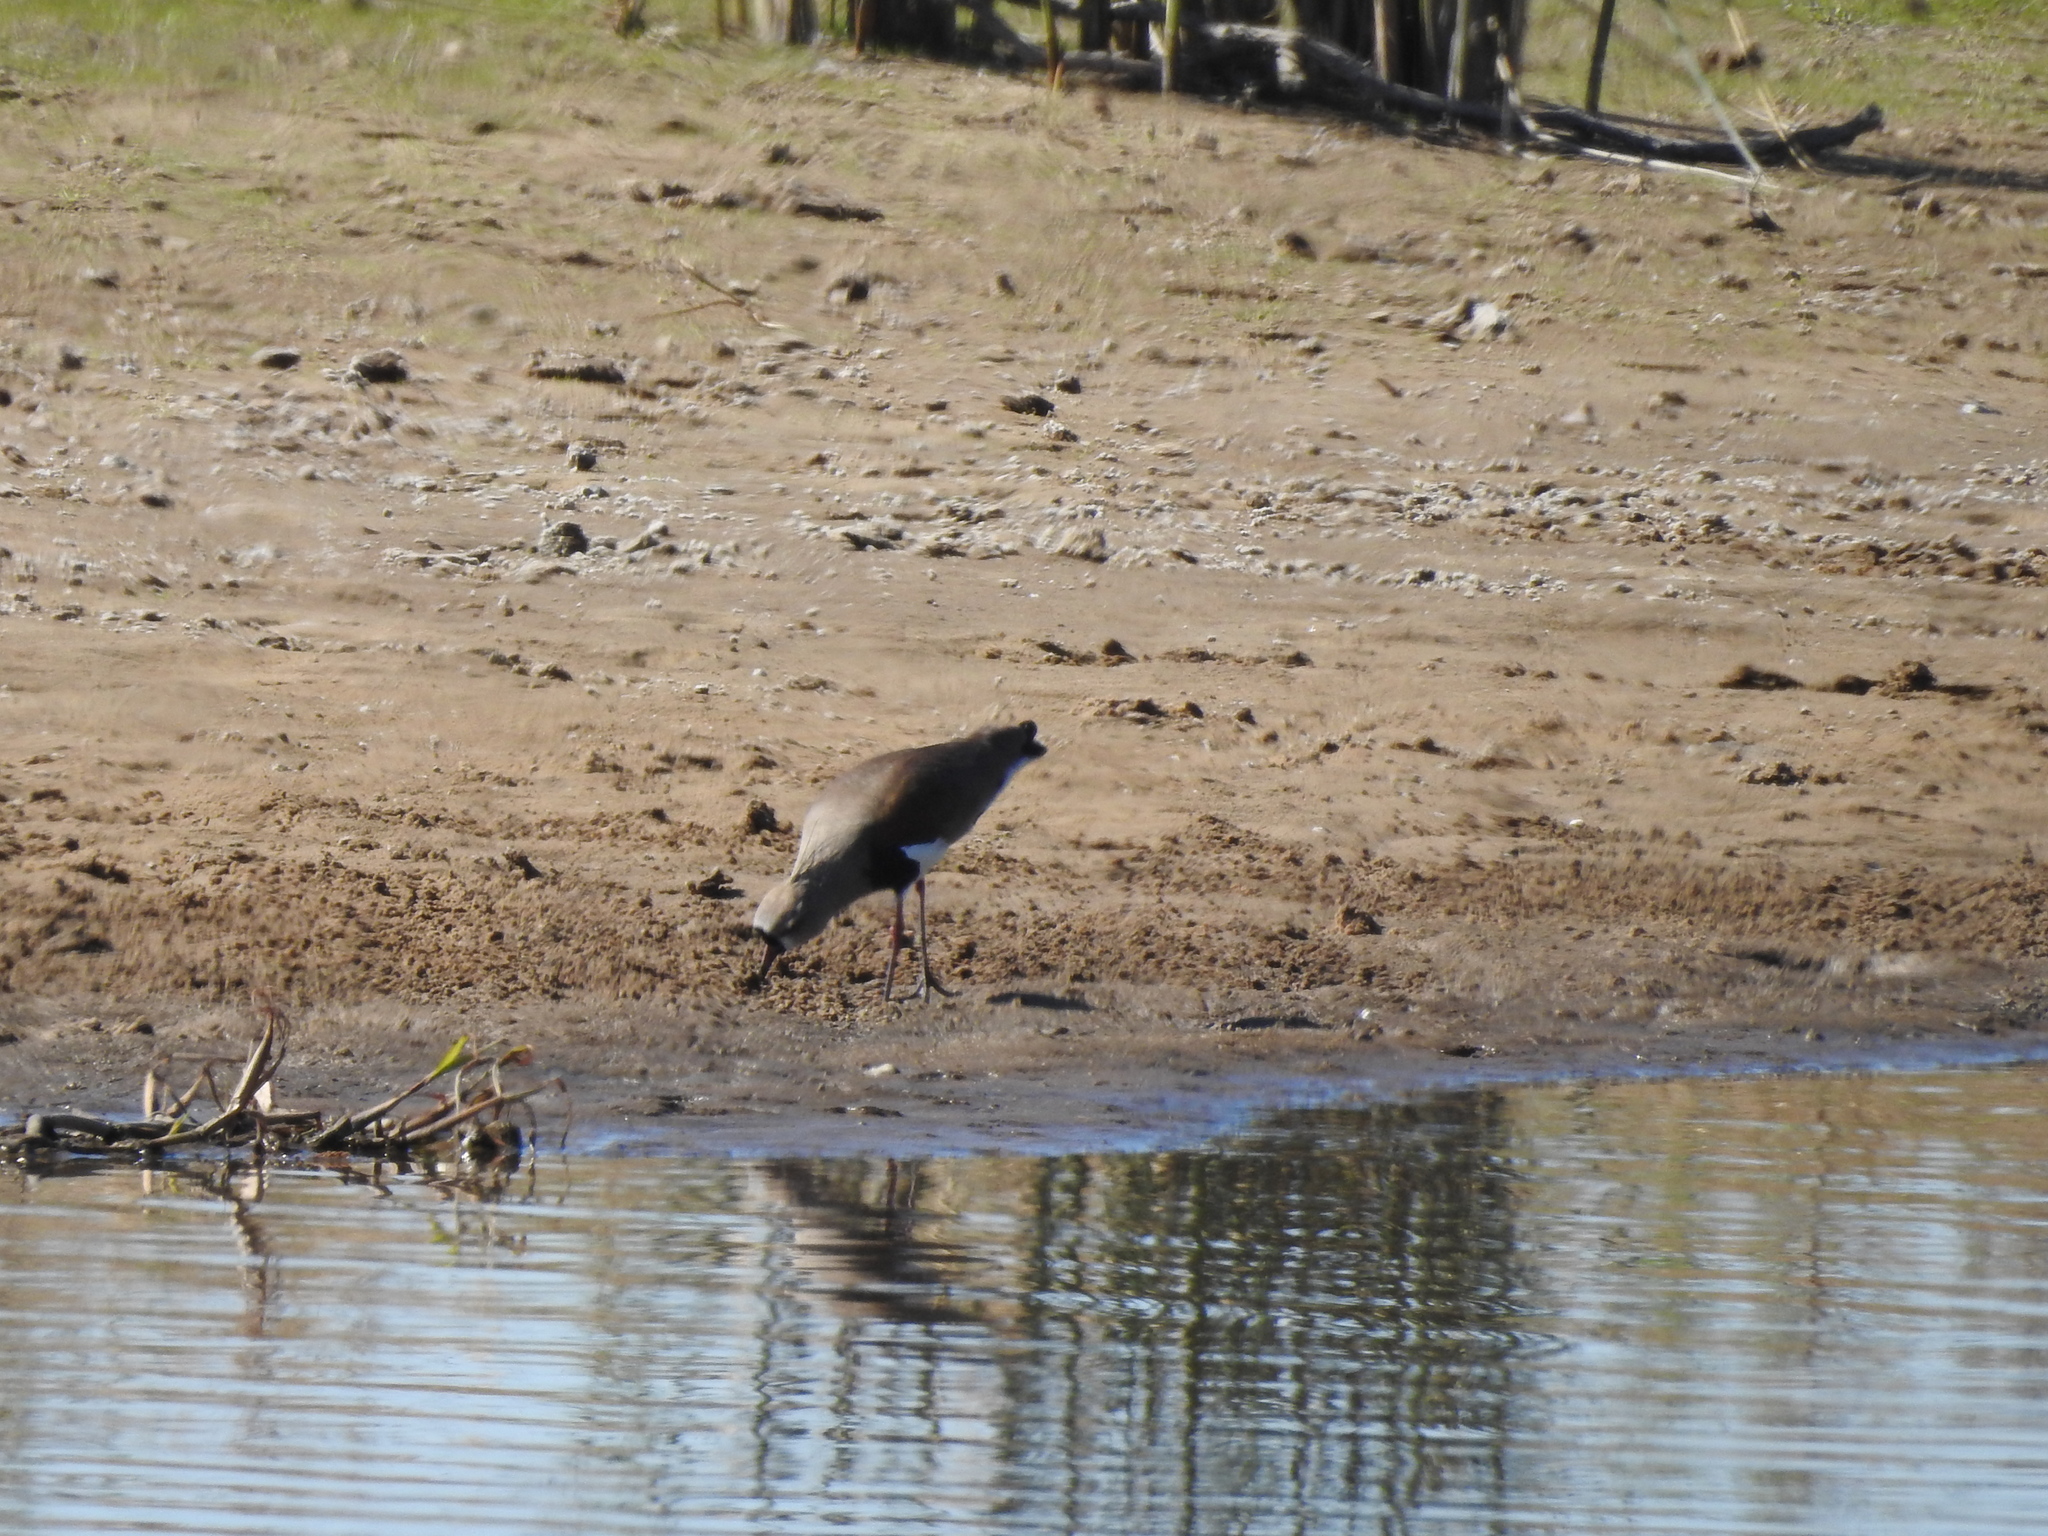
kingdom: Animalia
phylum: Chordata
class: Aves
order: Charadriiformes
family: Charadriidae
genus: Vanellus
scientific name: Vanellus chilensis
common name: Southern lapwing
